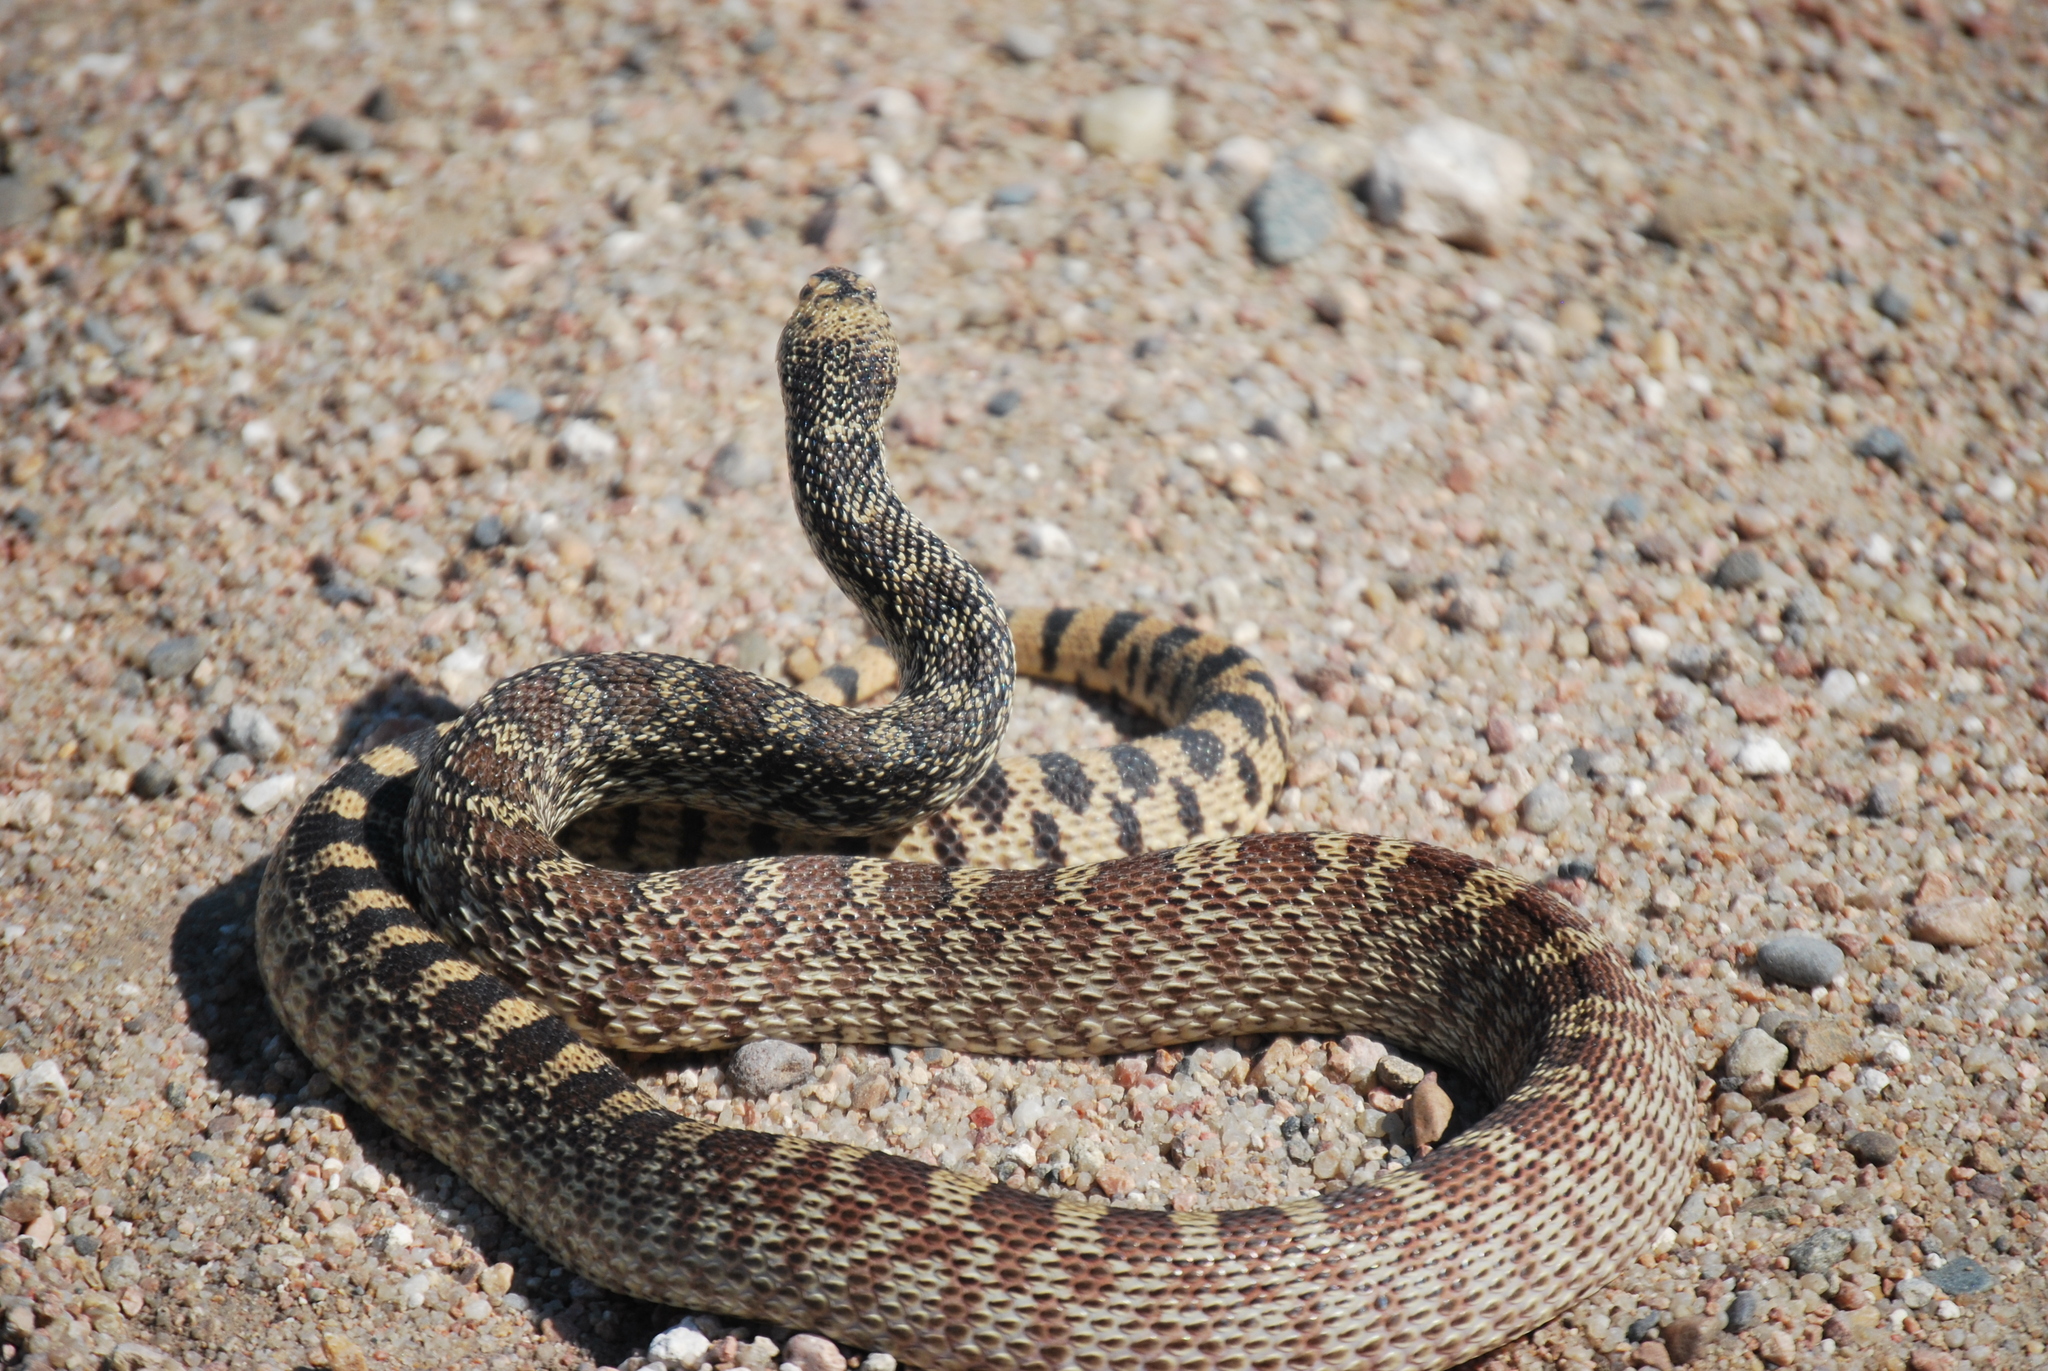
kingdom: Animalia
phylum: Chordata
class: Squamata
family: Colubridae
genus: Pituophis
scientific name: Pituophis catenifer
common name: Gopher snake
